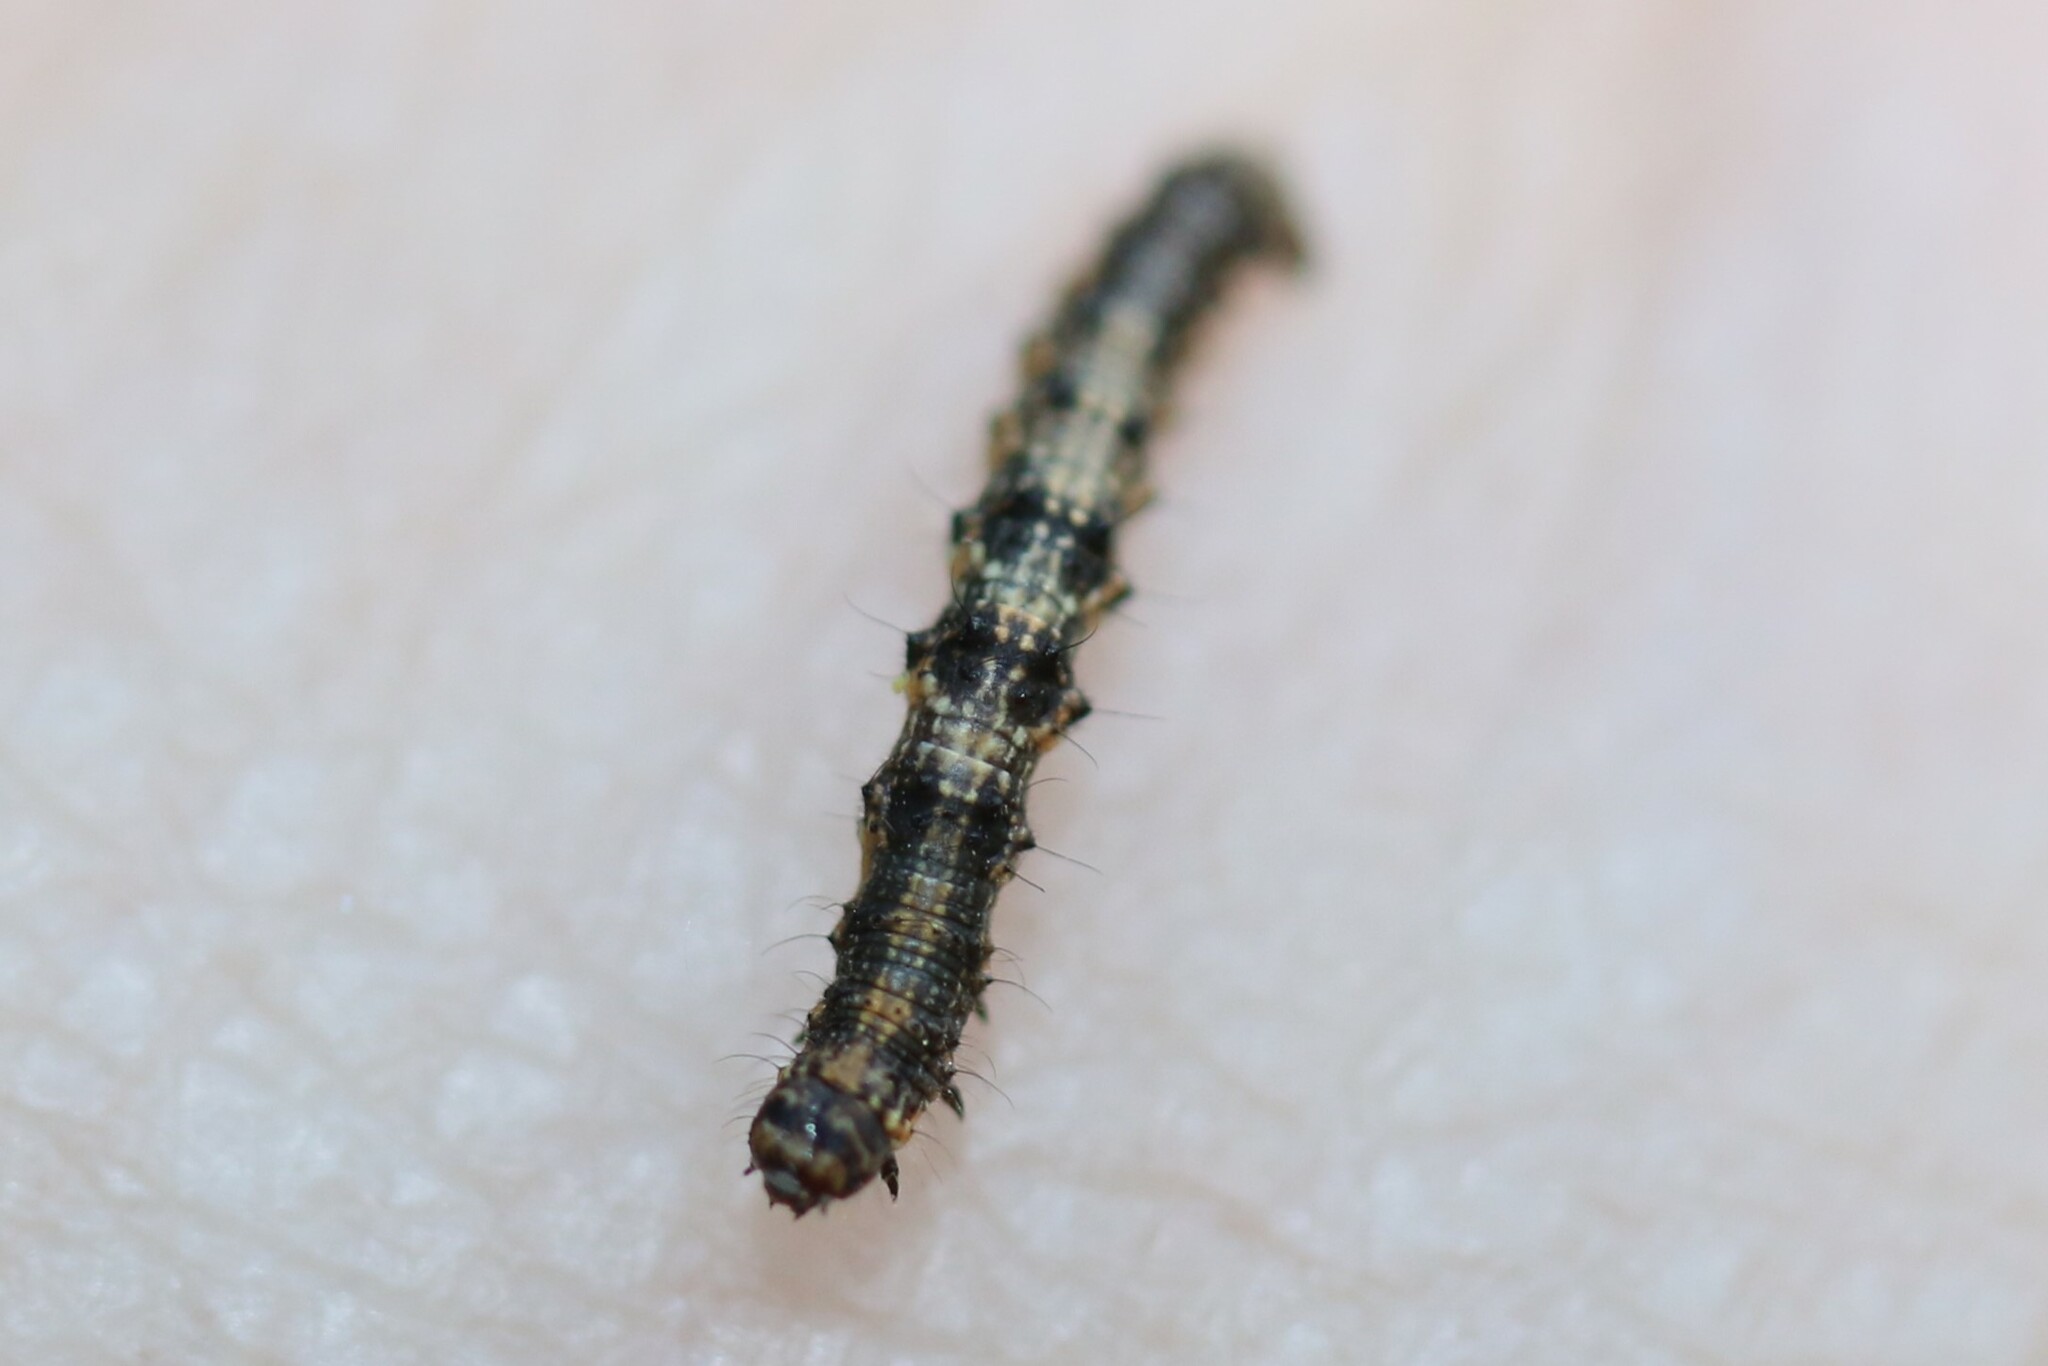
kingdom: Animalia
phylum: Arthropoda
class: Insecta
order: Lepidoptera
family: Geometridae
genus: Phigalia
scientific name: Phigalia pilosaria
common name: Pale brindled beauty
